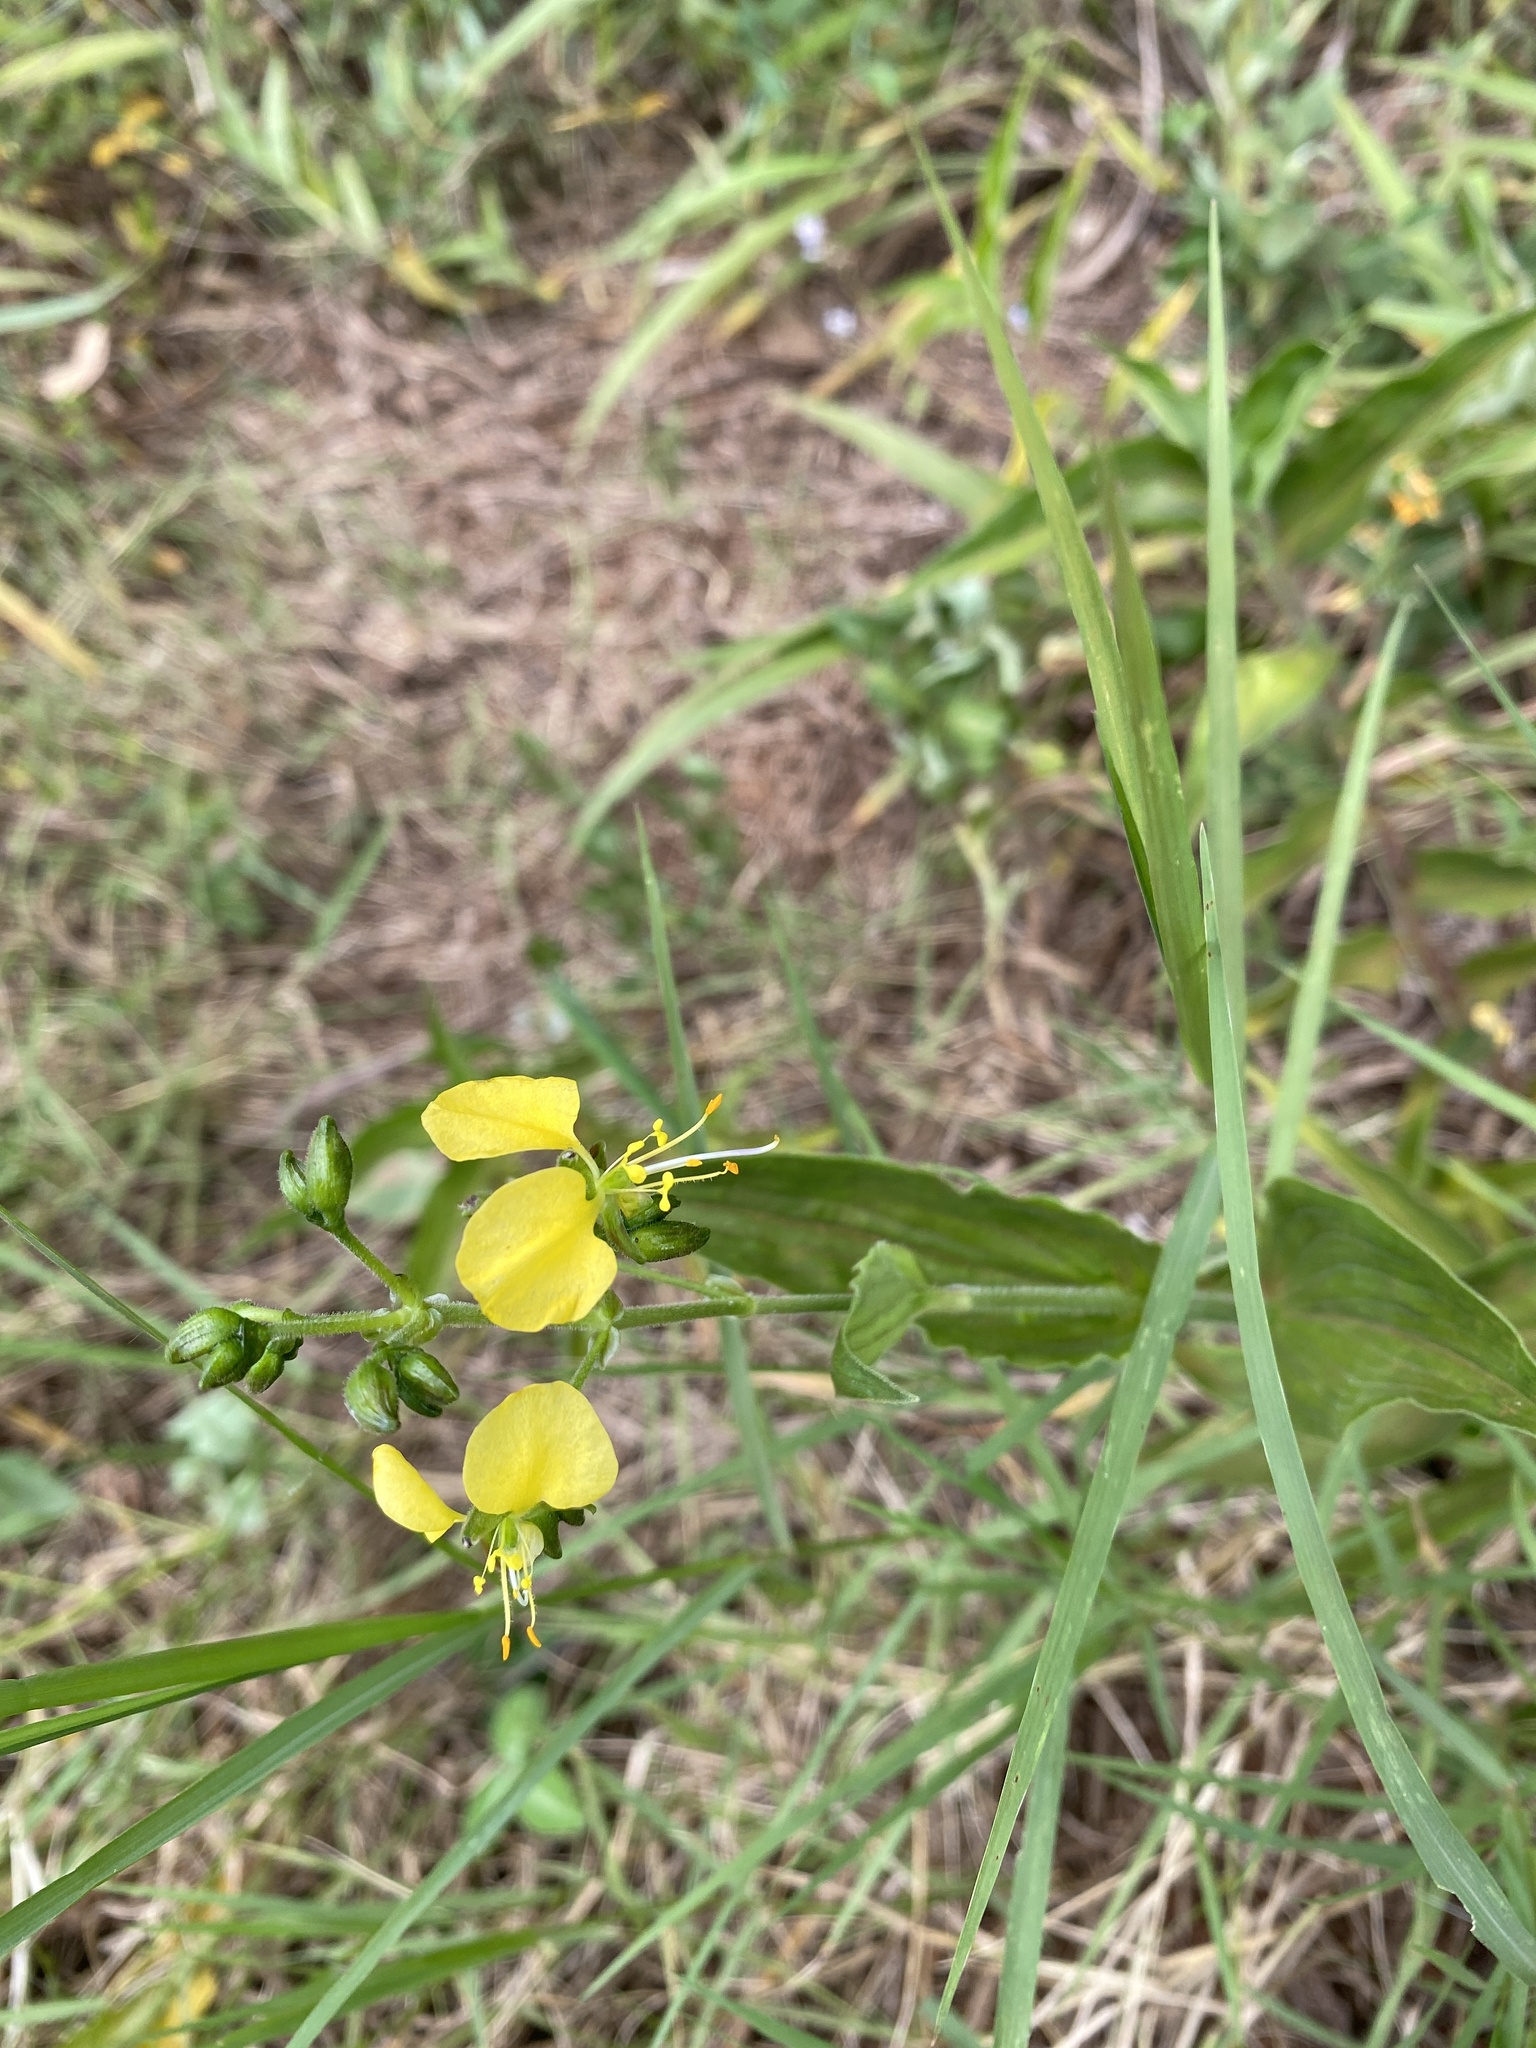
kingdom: Plantae
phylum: Tracheophyta
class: Liliopsida
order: Commelinales
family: Commelinaceae
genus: Aneilema
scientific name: Aneilema aequinoctiale
